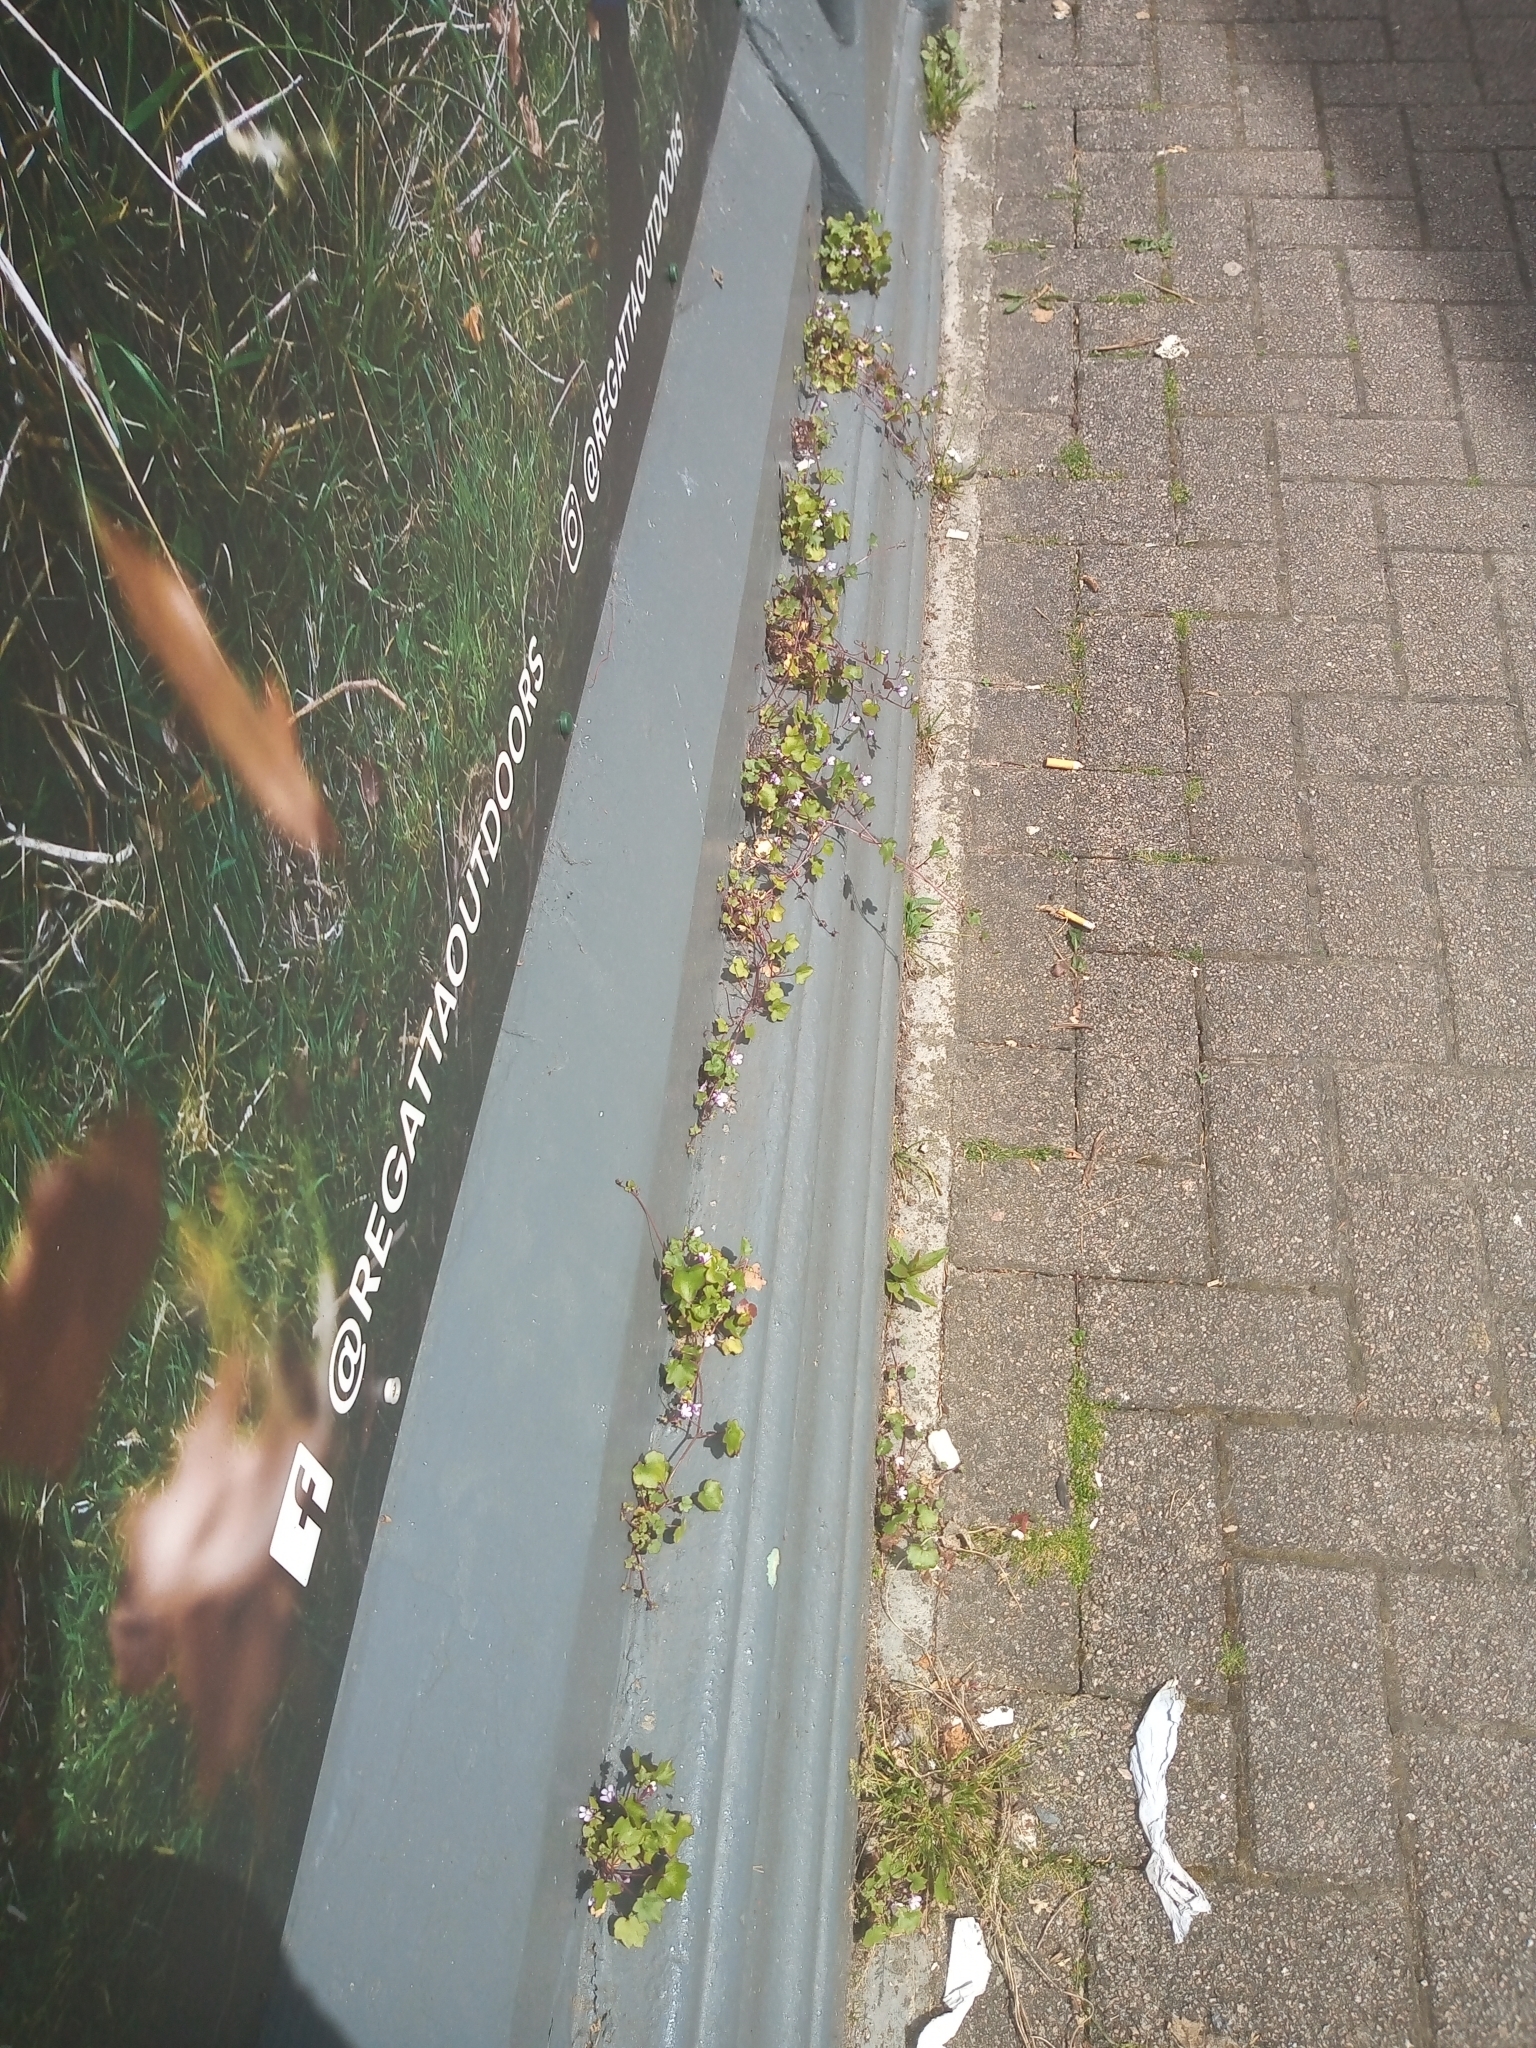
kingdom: Plantae
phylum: Tracheophyta
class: Magnoliopsida
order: Lamiales
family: Plantaginaceae
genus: Cymbalaria
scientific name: Cymbalaria muralis
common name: Ivy-leaved toadflax
